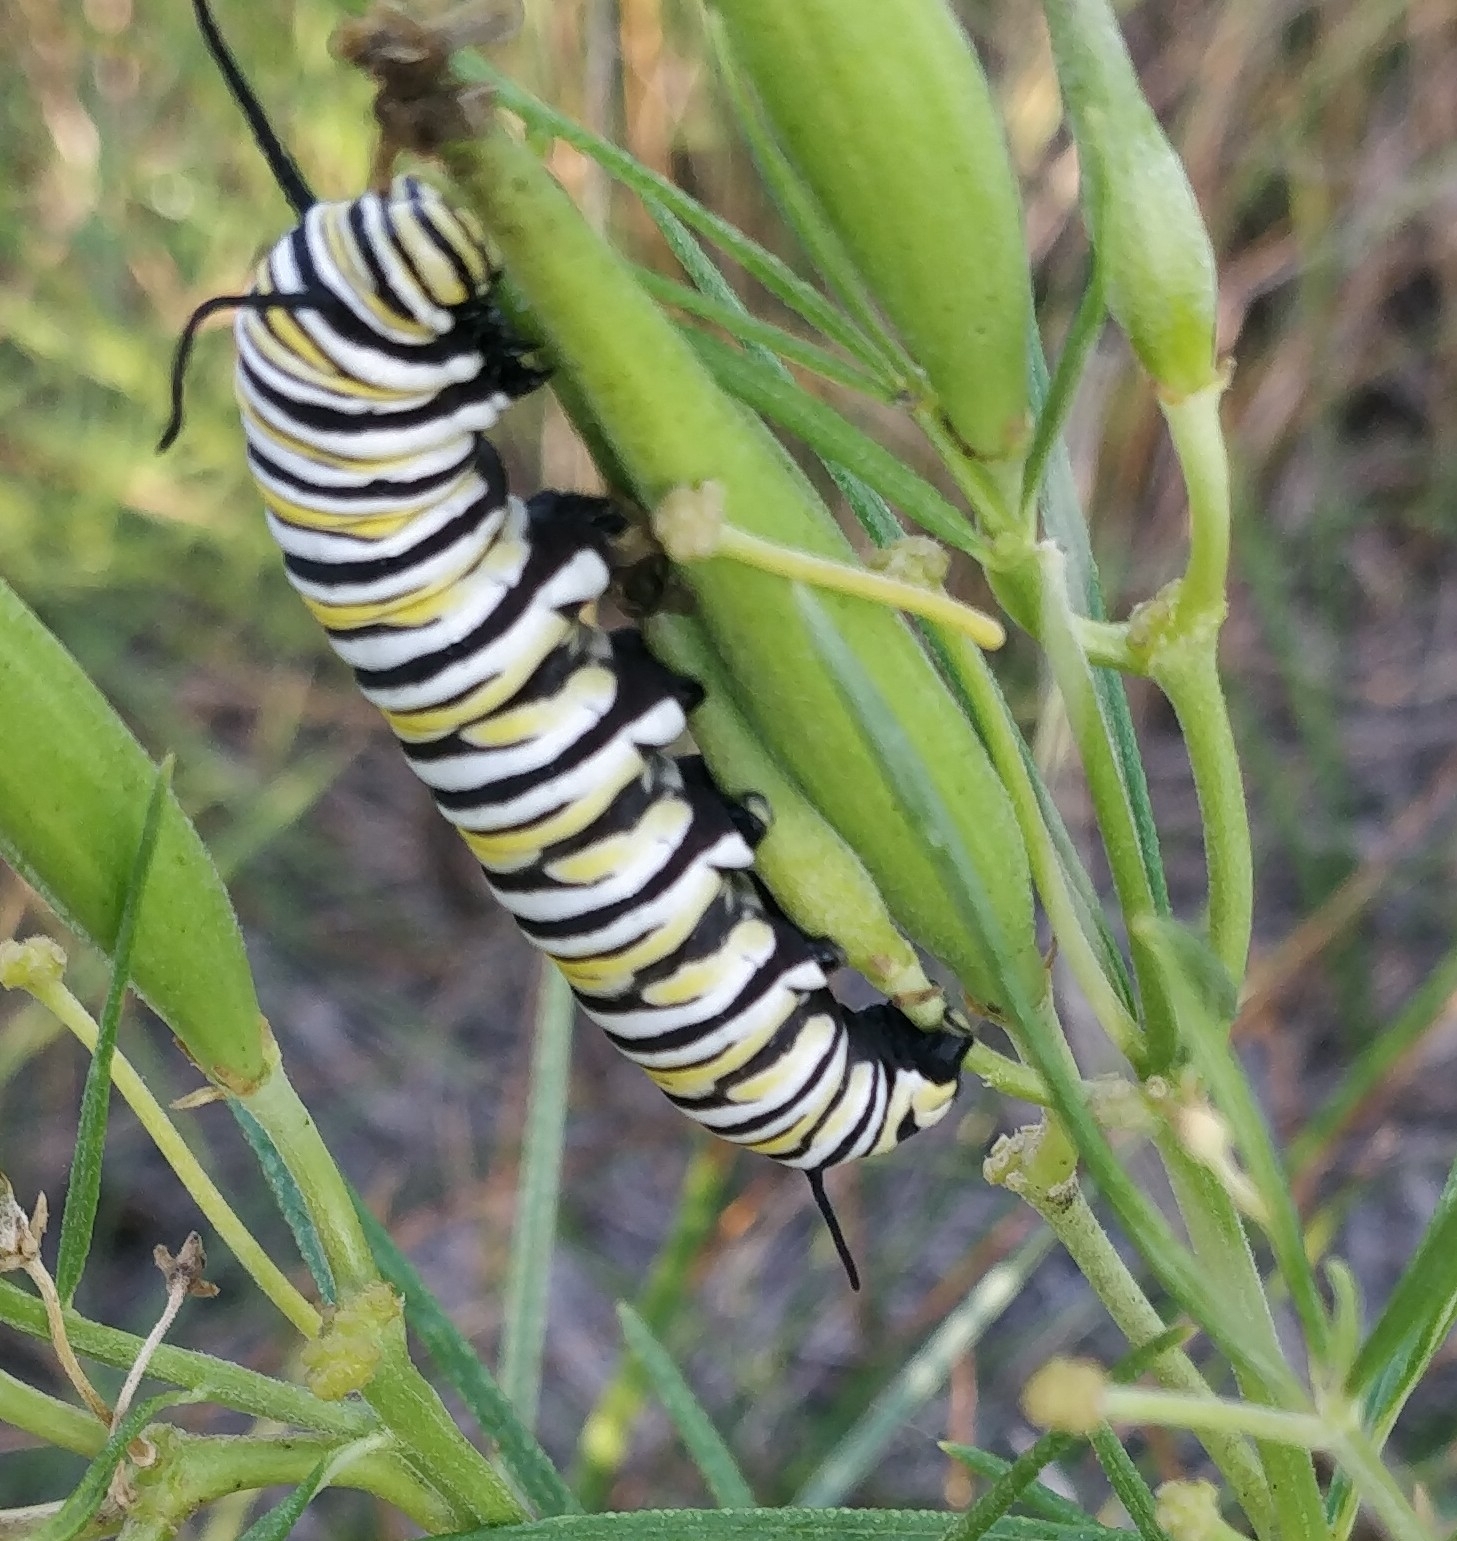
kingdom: Animalia
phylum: Arthropoda
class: Insecta
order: Lepidoptera
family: Nymphalidae
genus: Danaus
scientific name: Danaus plexippus
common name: Monarch
